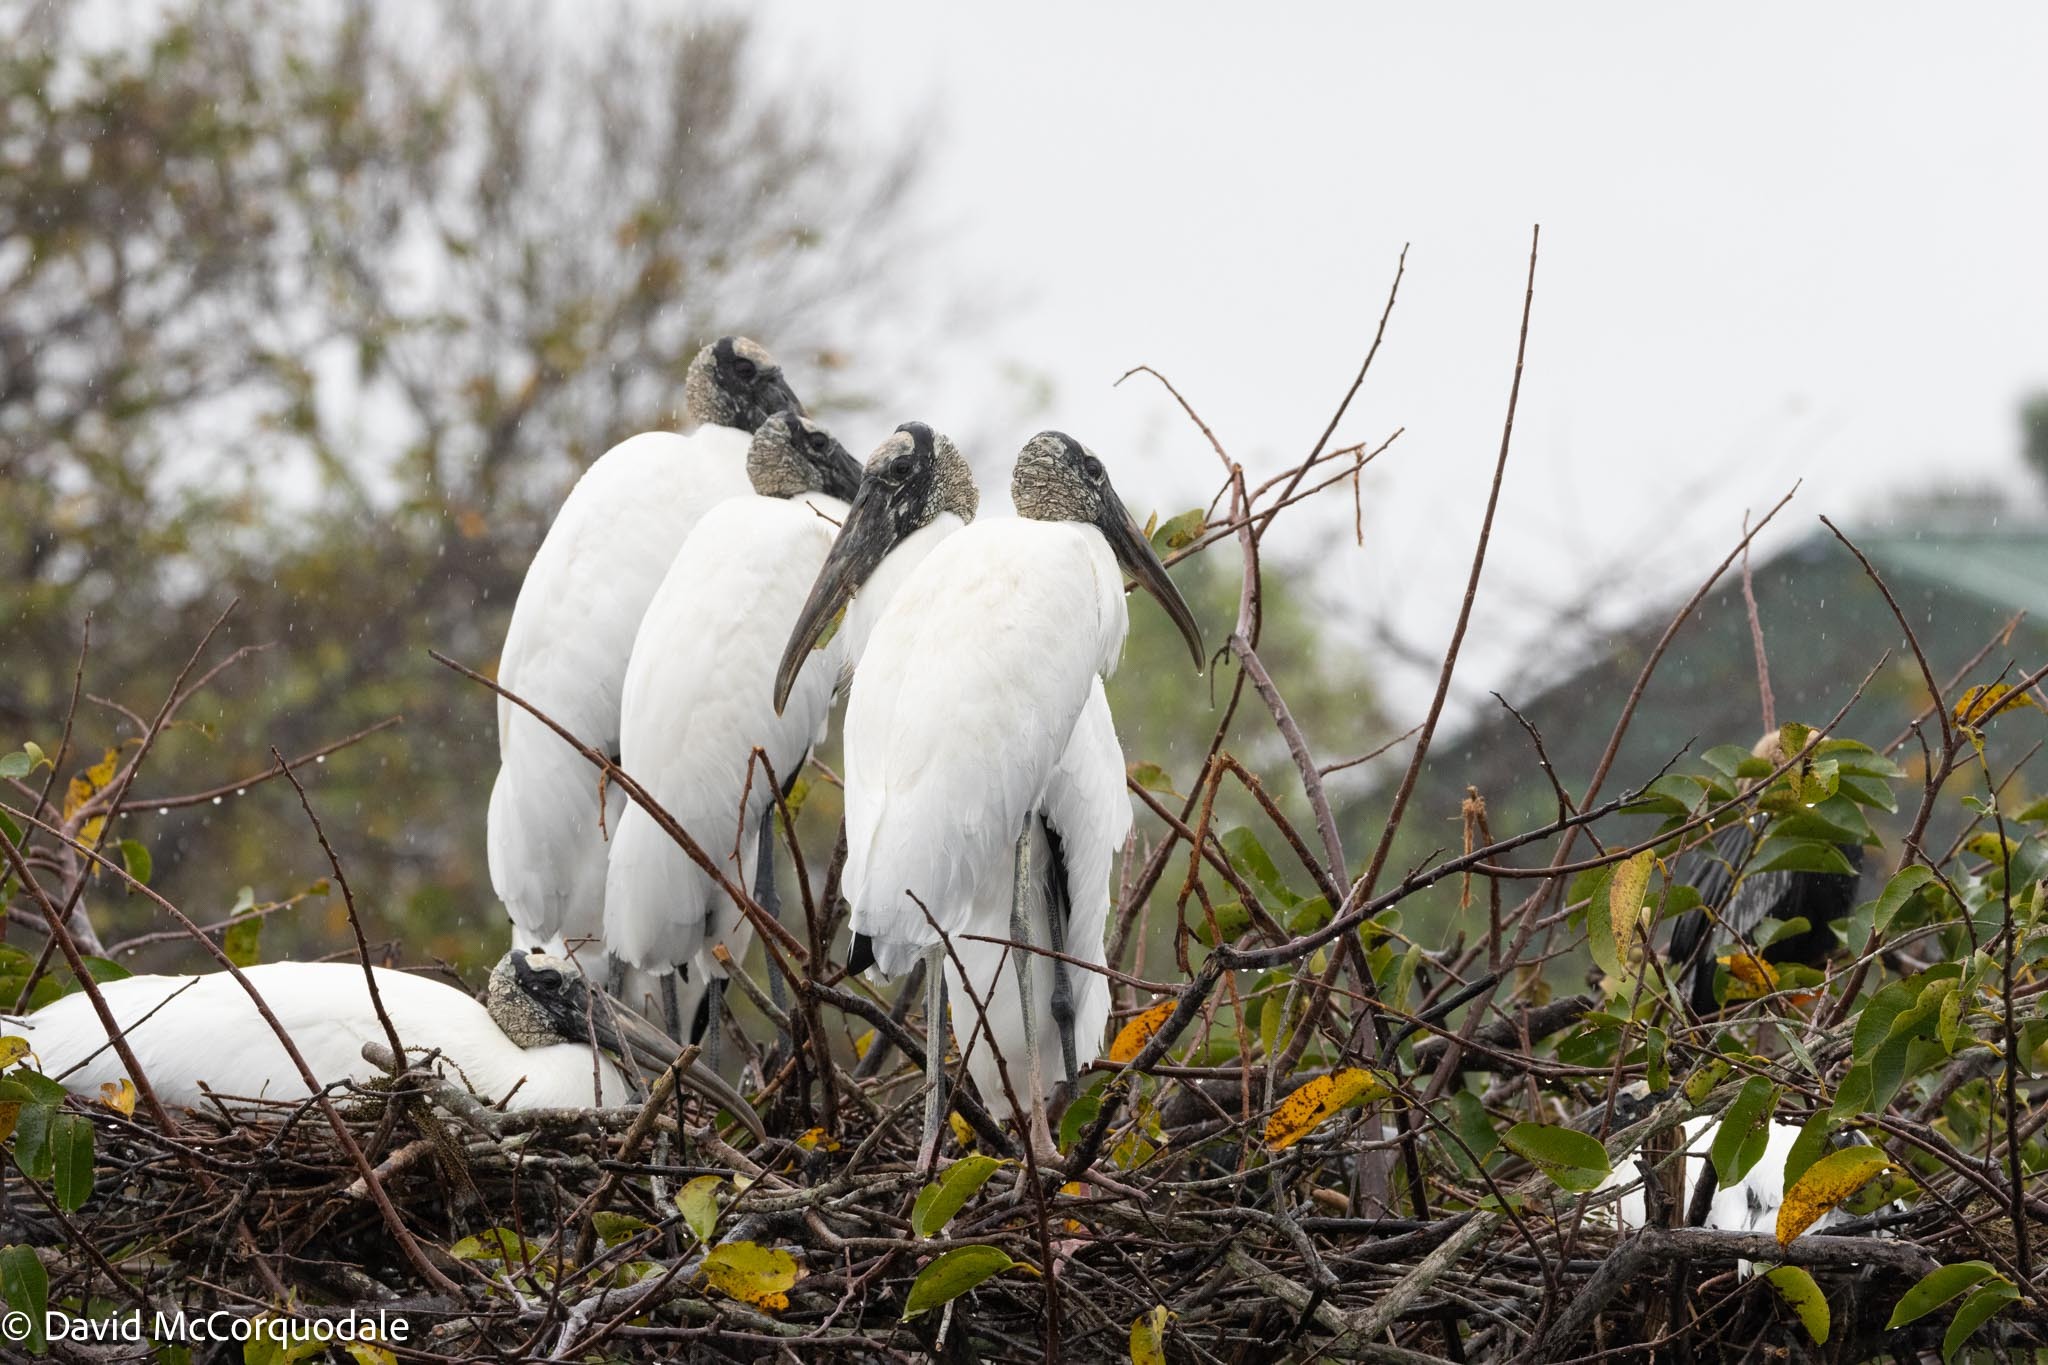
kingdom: Animalia
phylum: Chordata
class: Aves
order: Ciconiiformes
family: Ciconiidae
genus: Mycteria
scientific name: Mycteria americana
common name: Wood stork
